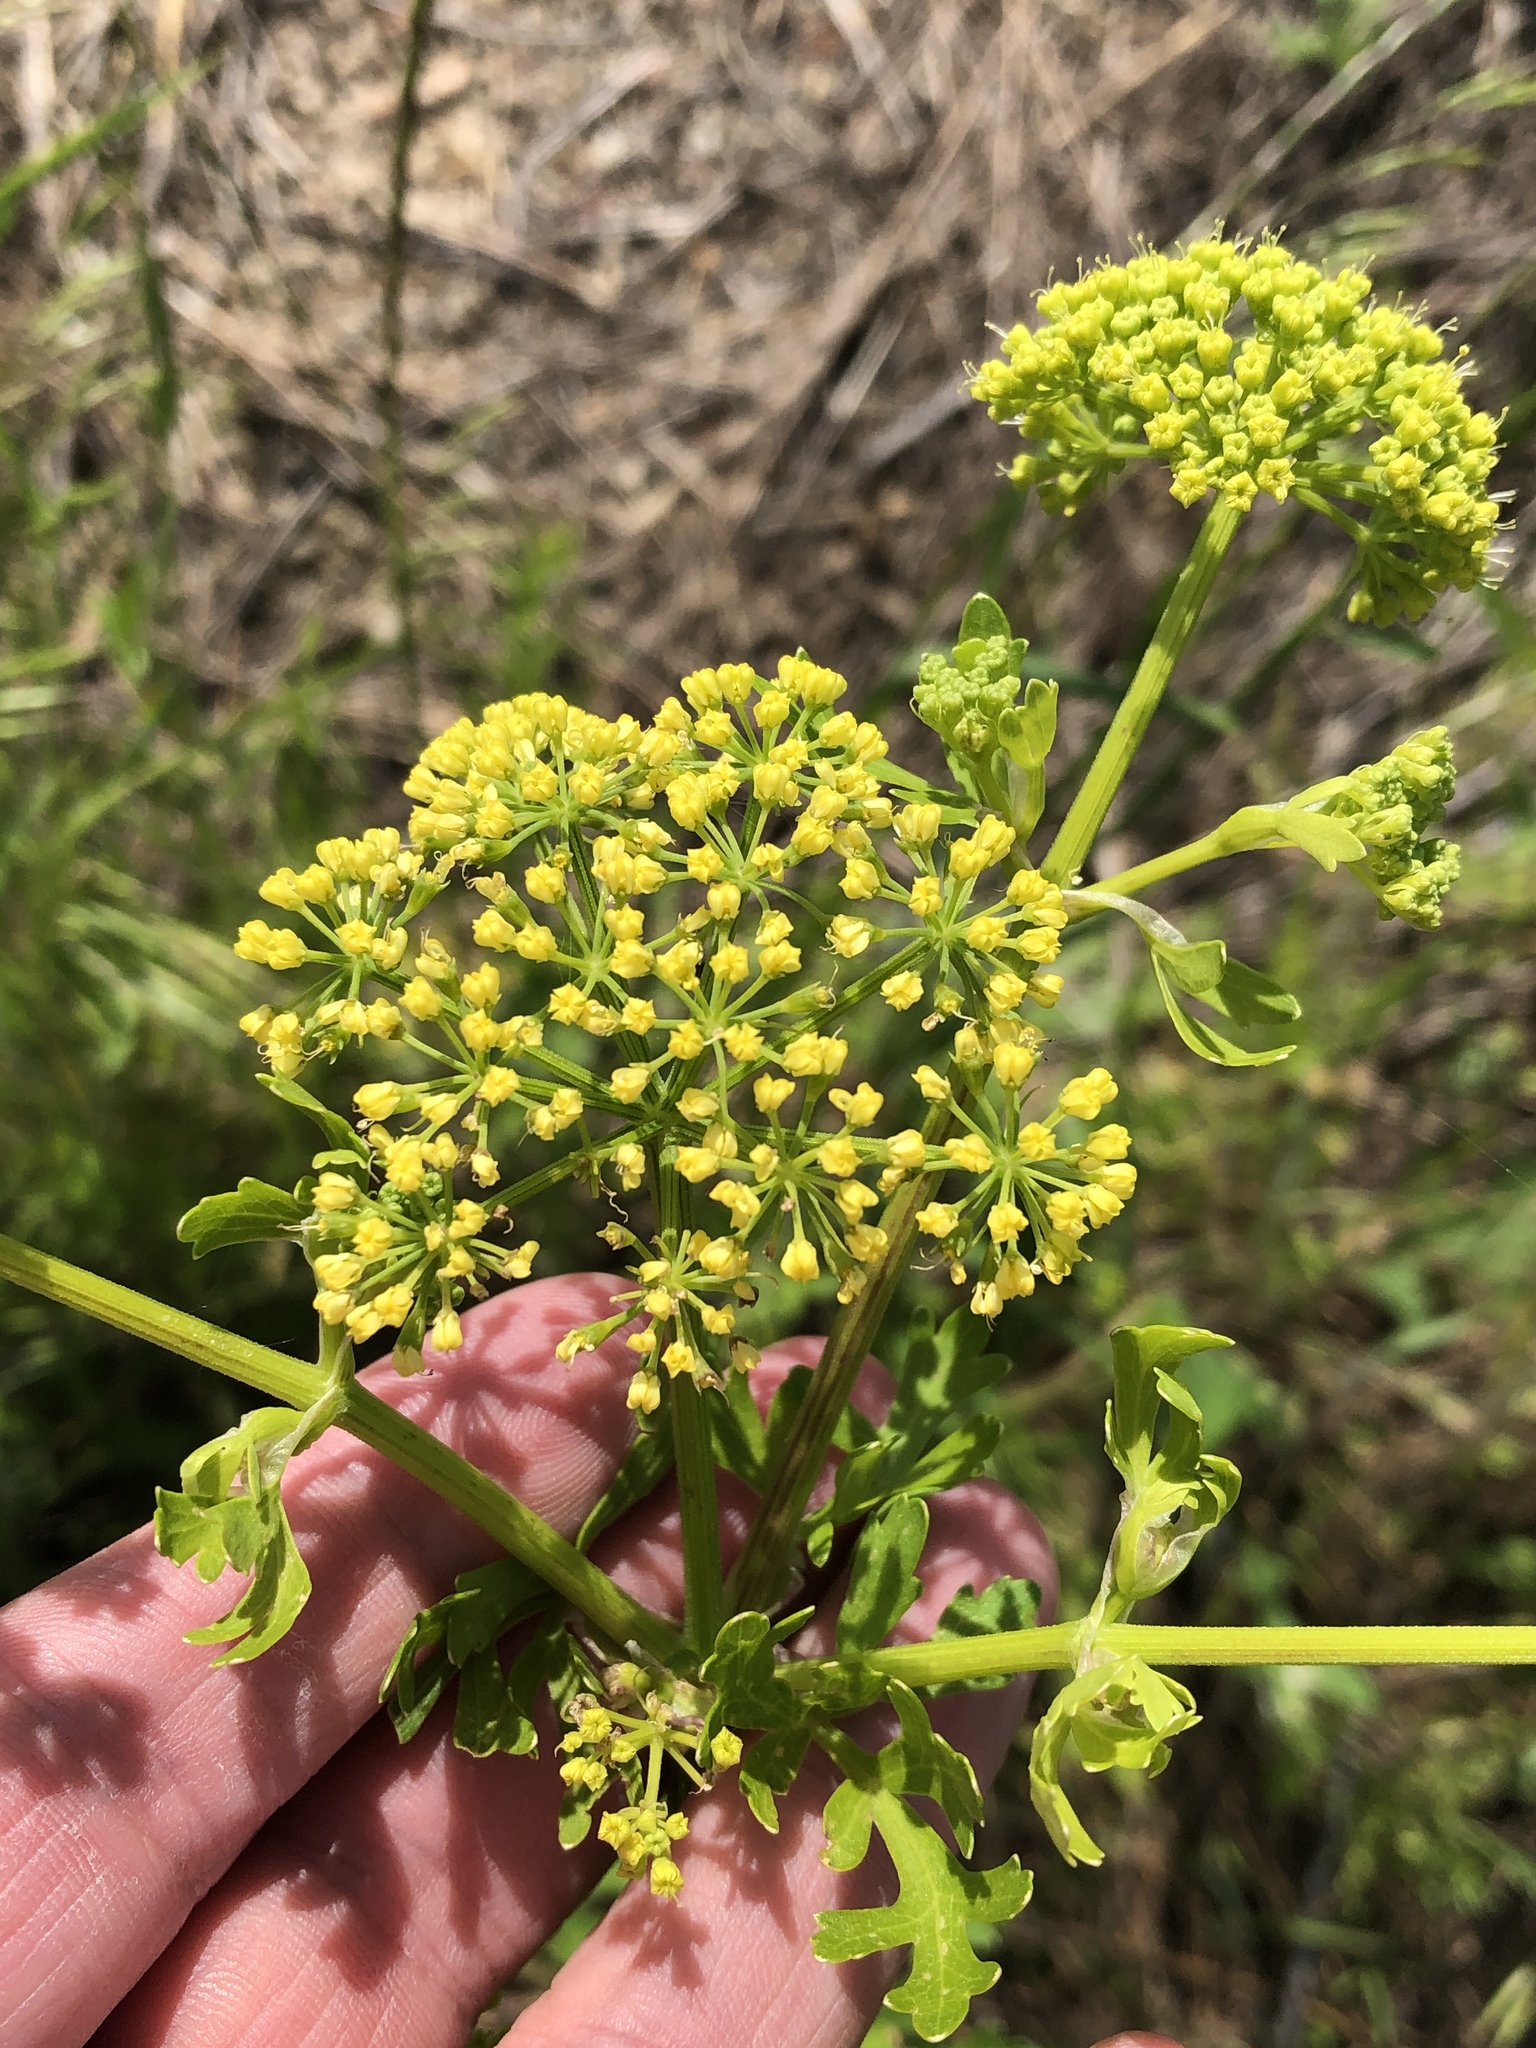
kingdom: Plantae
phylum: Tracheophyta
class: Magnoliopsida
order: Apiales
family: Apiaceae
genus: Polytaenia
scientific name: Polytaenia texana
